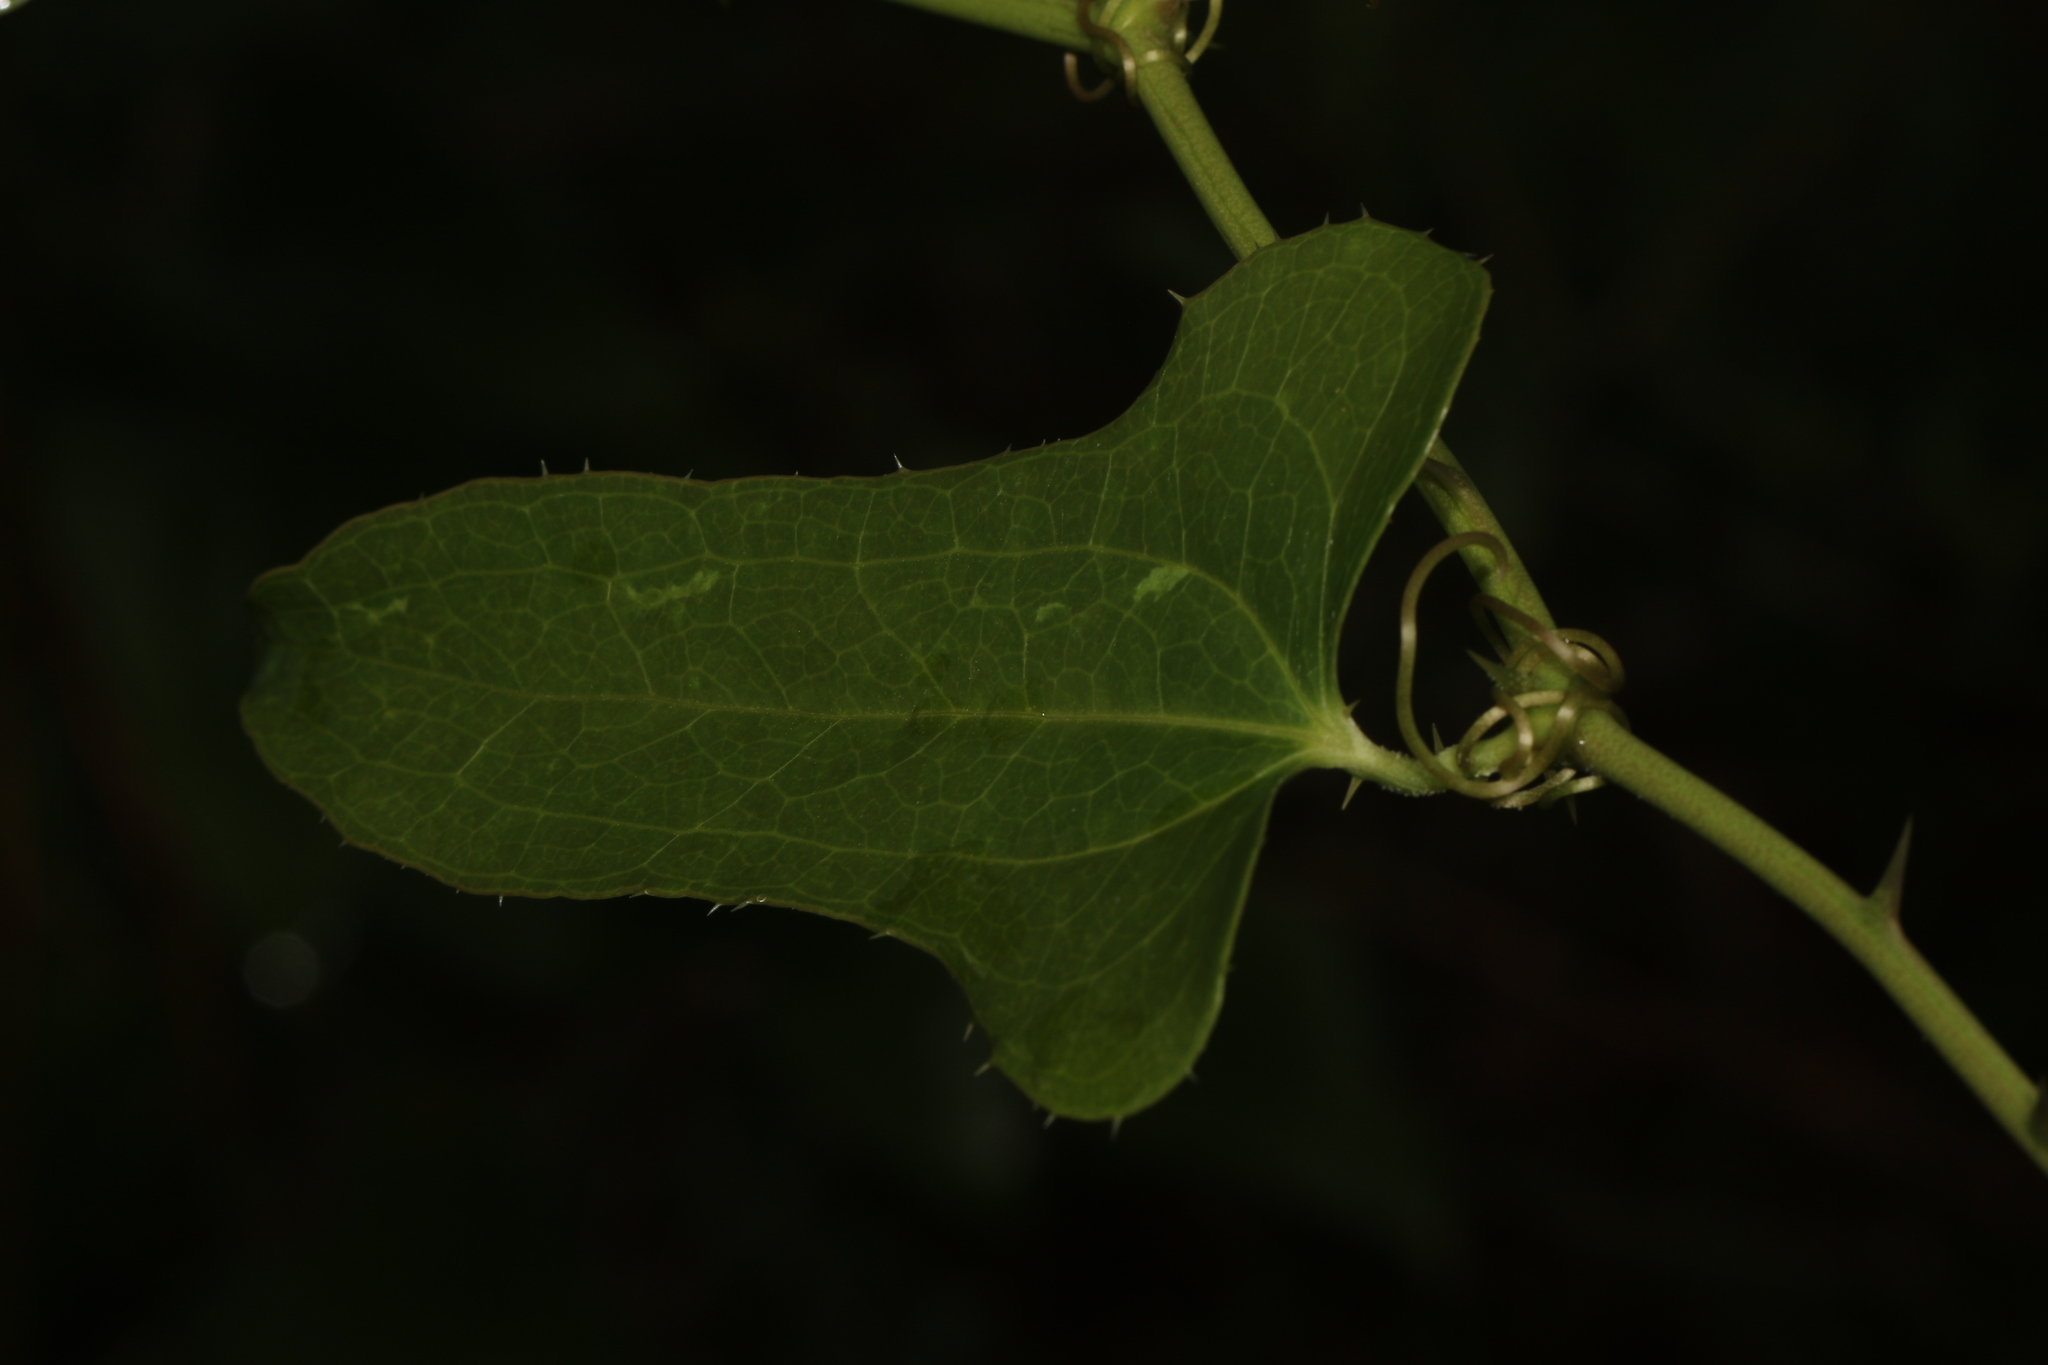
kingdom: Plantae
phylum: Tracheophyta
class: Liliopsida
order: Liliales
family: Smilacaceae
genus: Smilax
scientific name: Smilax bona-nox
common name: Catbrier
